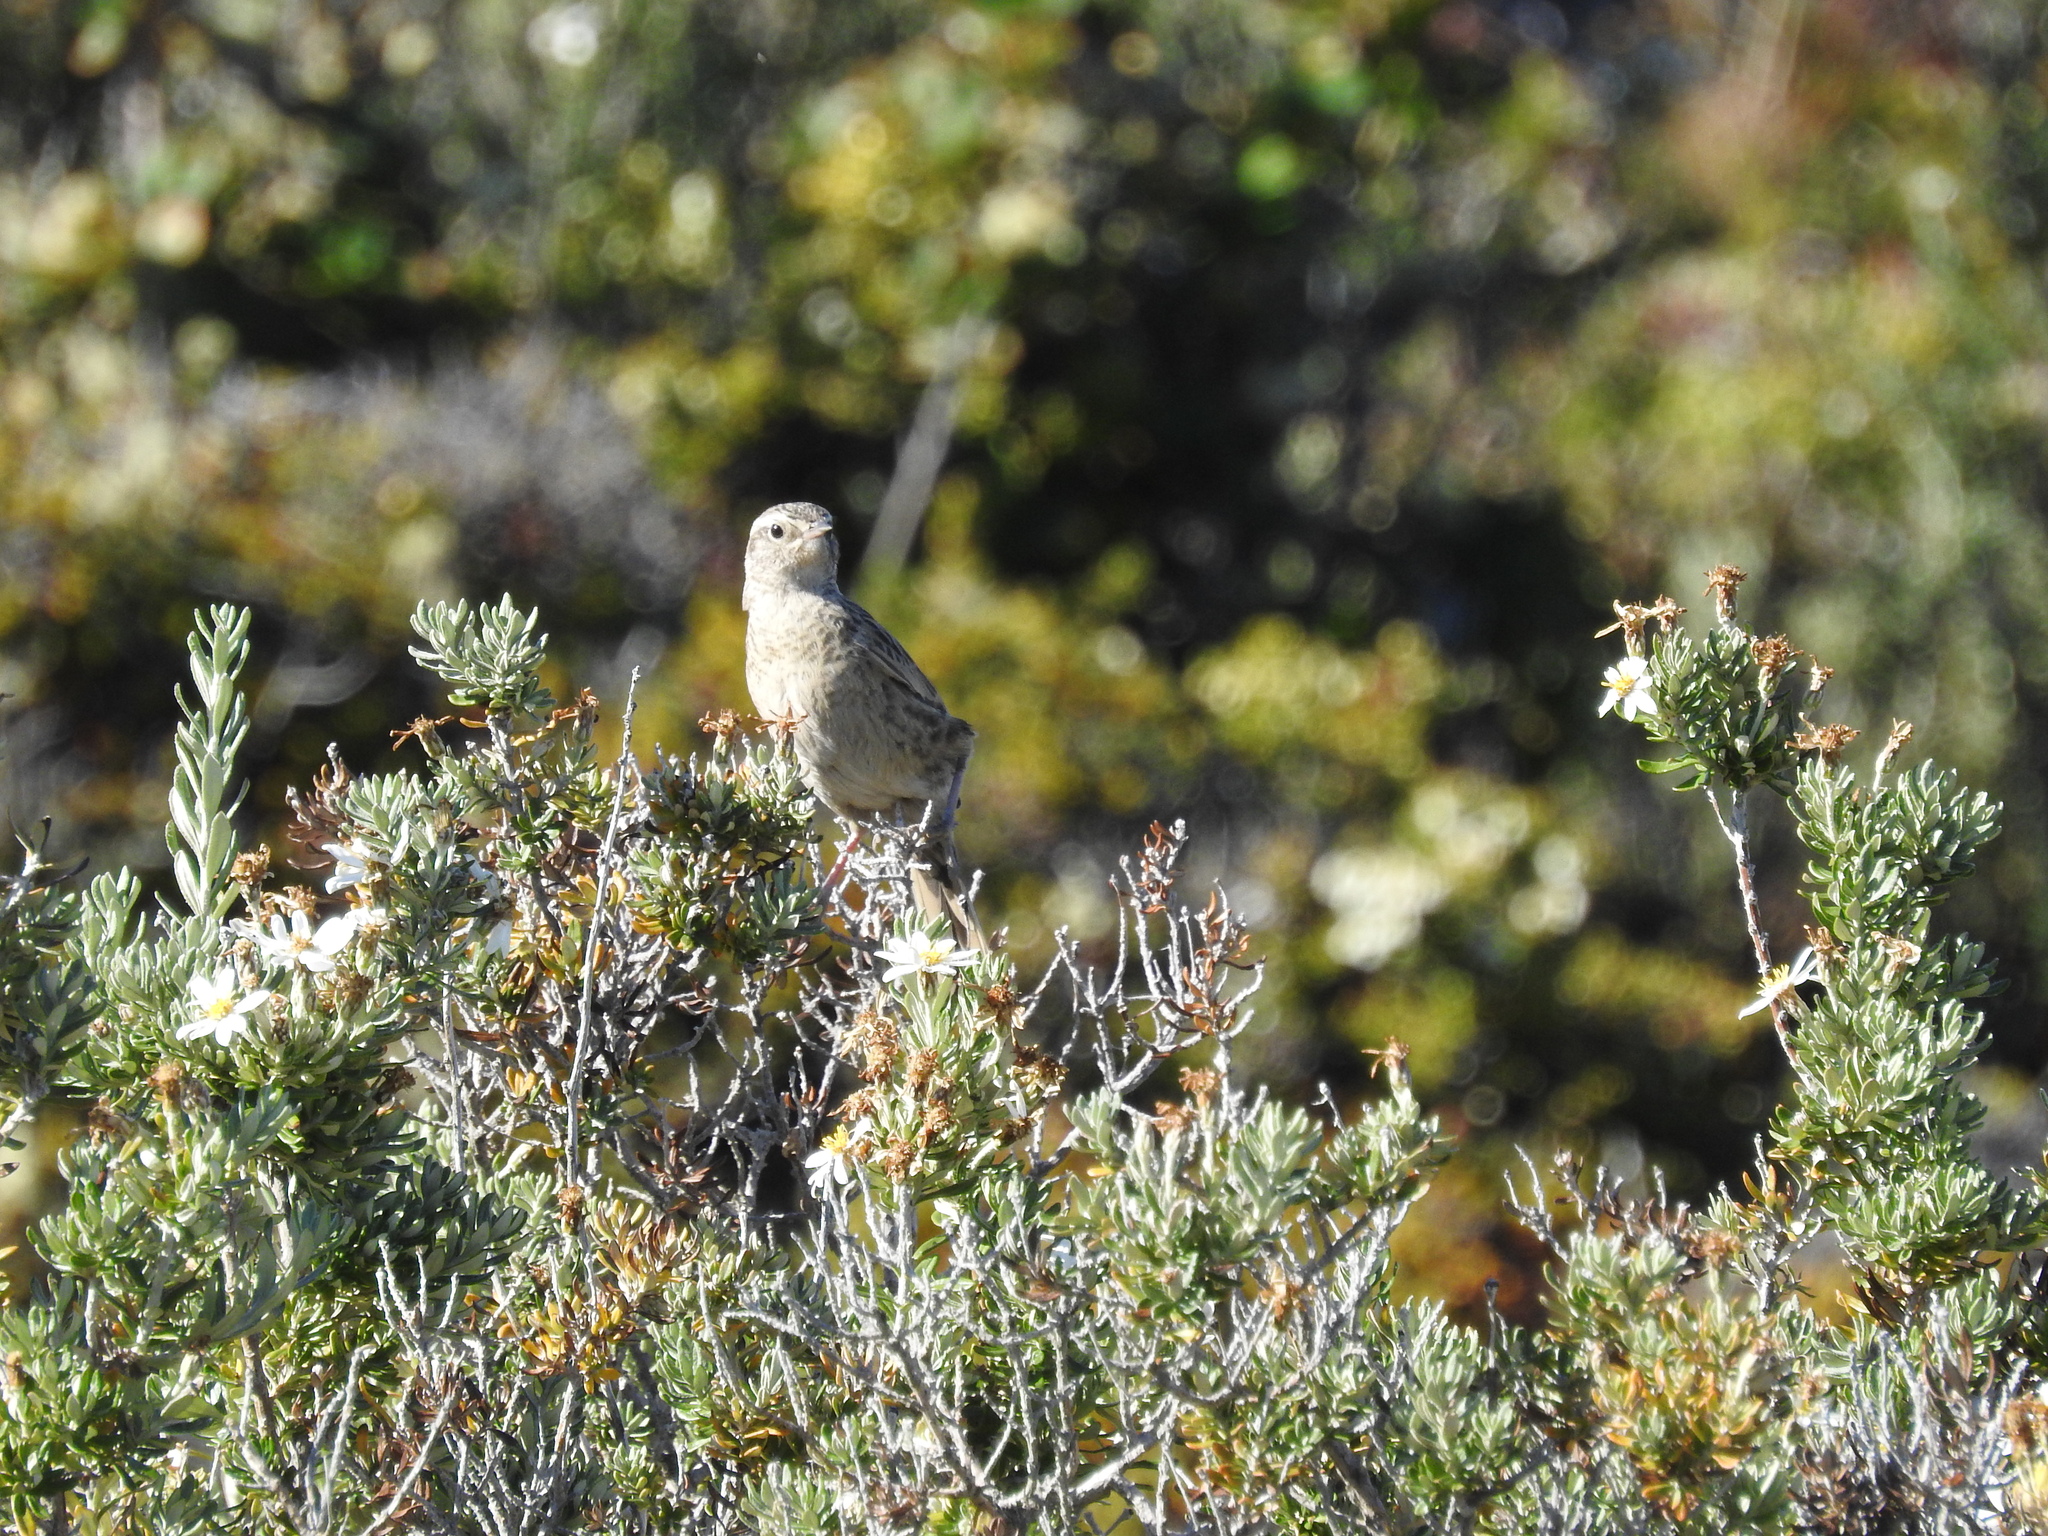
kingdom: Animalia
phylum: Chordata
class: Aves
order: Passeriformes
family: Furnariidae
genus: Asthenes
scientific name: Asthenes anthoides
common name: Austral canastero
